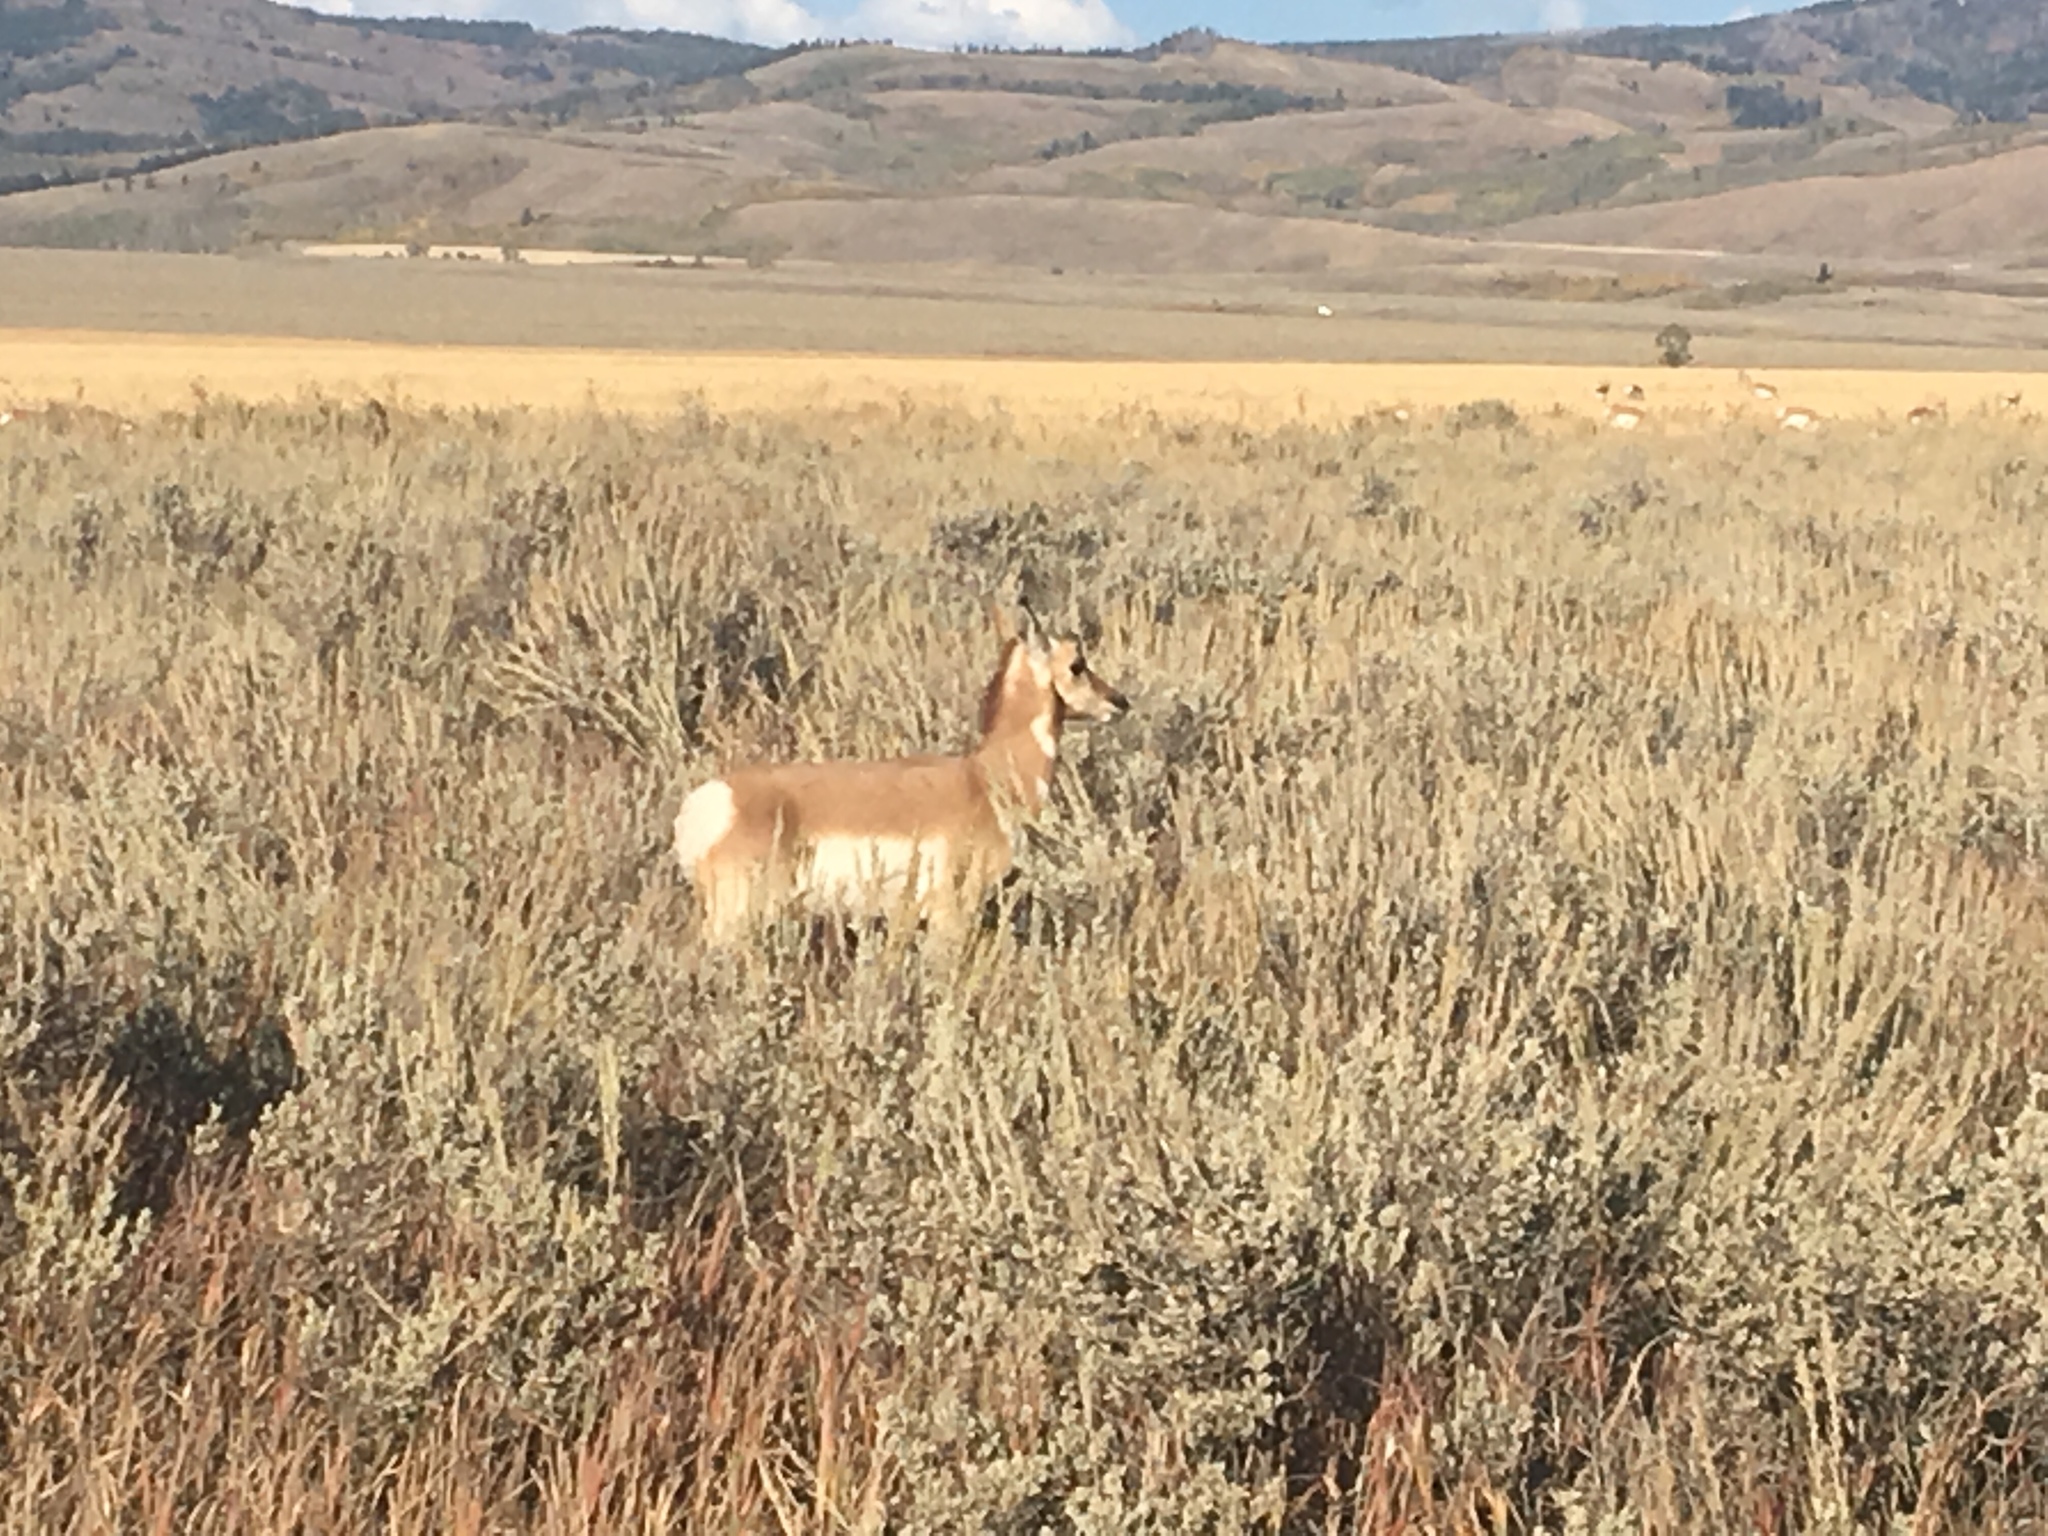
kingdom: Animalia
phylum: Chordata
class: Mammalia
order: Artiodactyla
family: Antilocapridae
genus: Antilocapra
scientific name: Antilocapra americana
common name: Pronghorn
